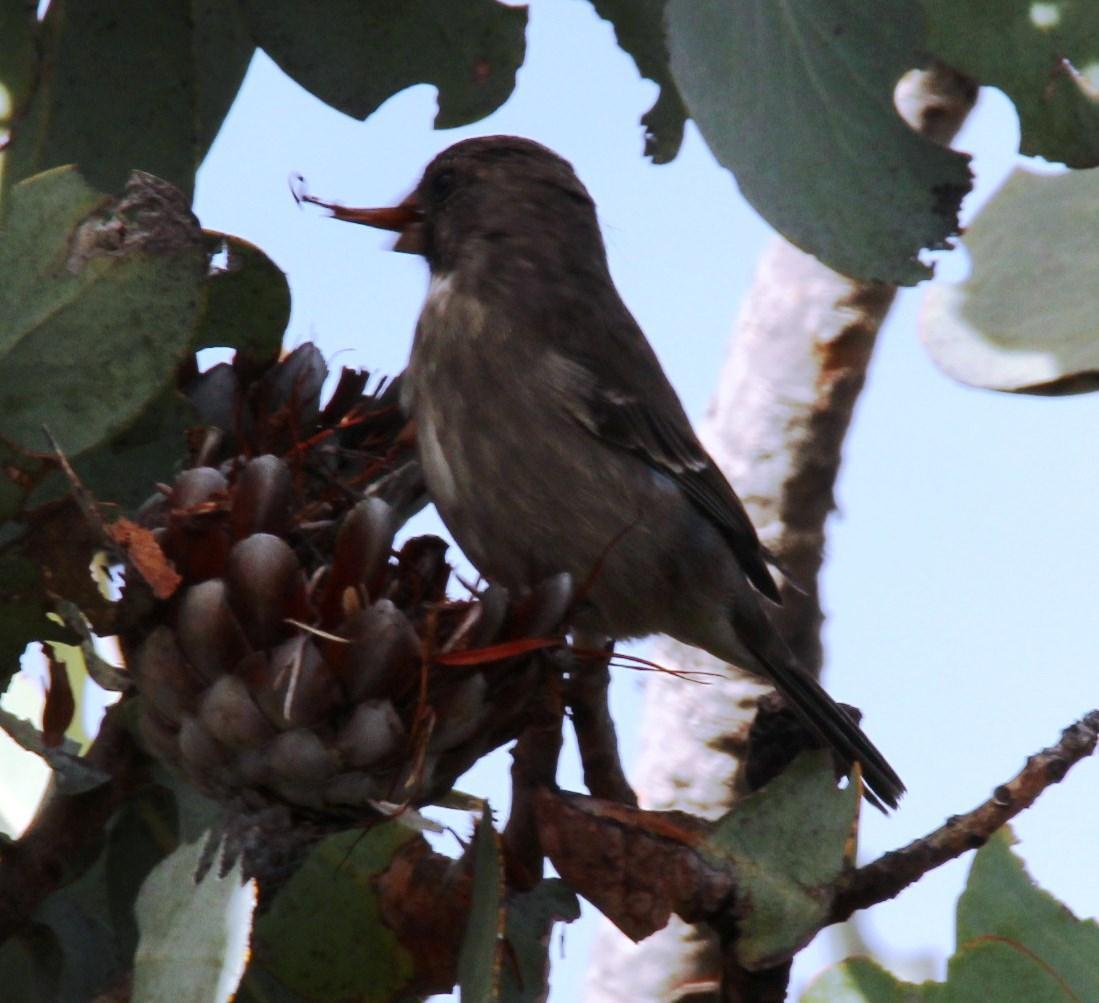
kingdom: Animalia
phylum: Chordata
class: Aves
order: Passeriformes
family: Fringillidae
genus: Crithagra
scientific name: Crithagra leucoptera
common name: Protea canary
